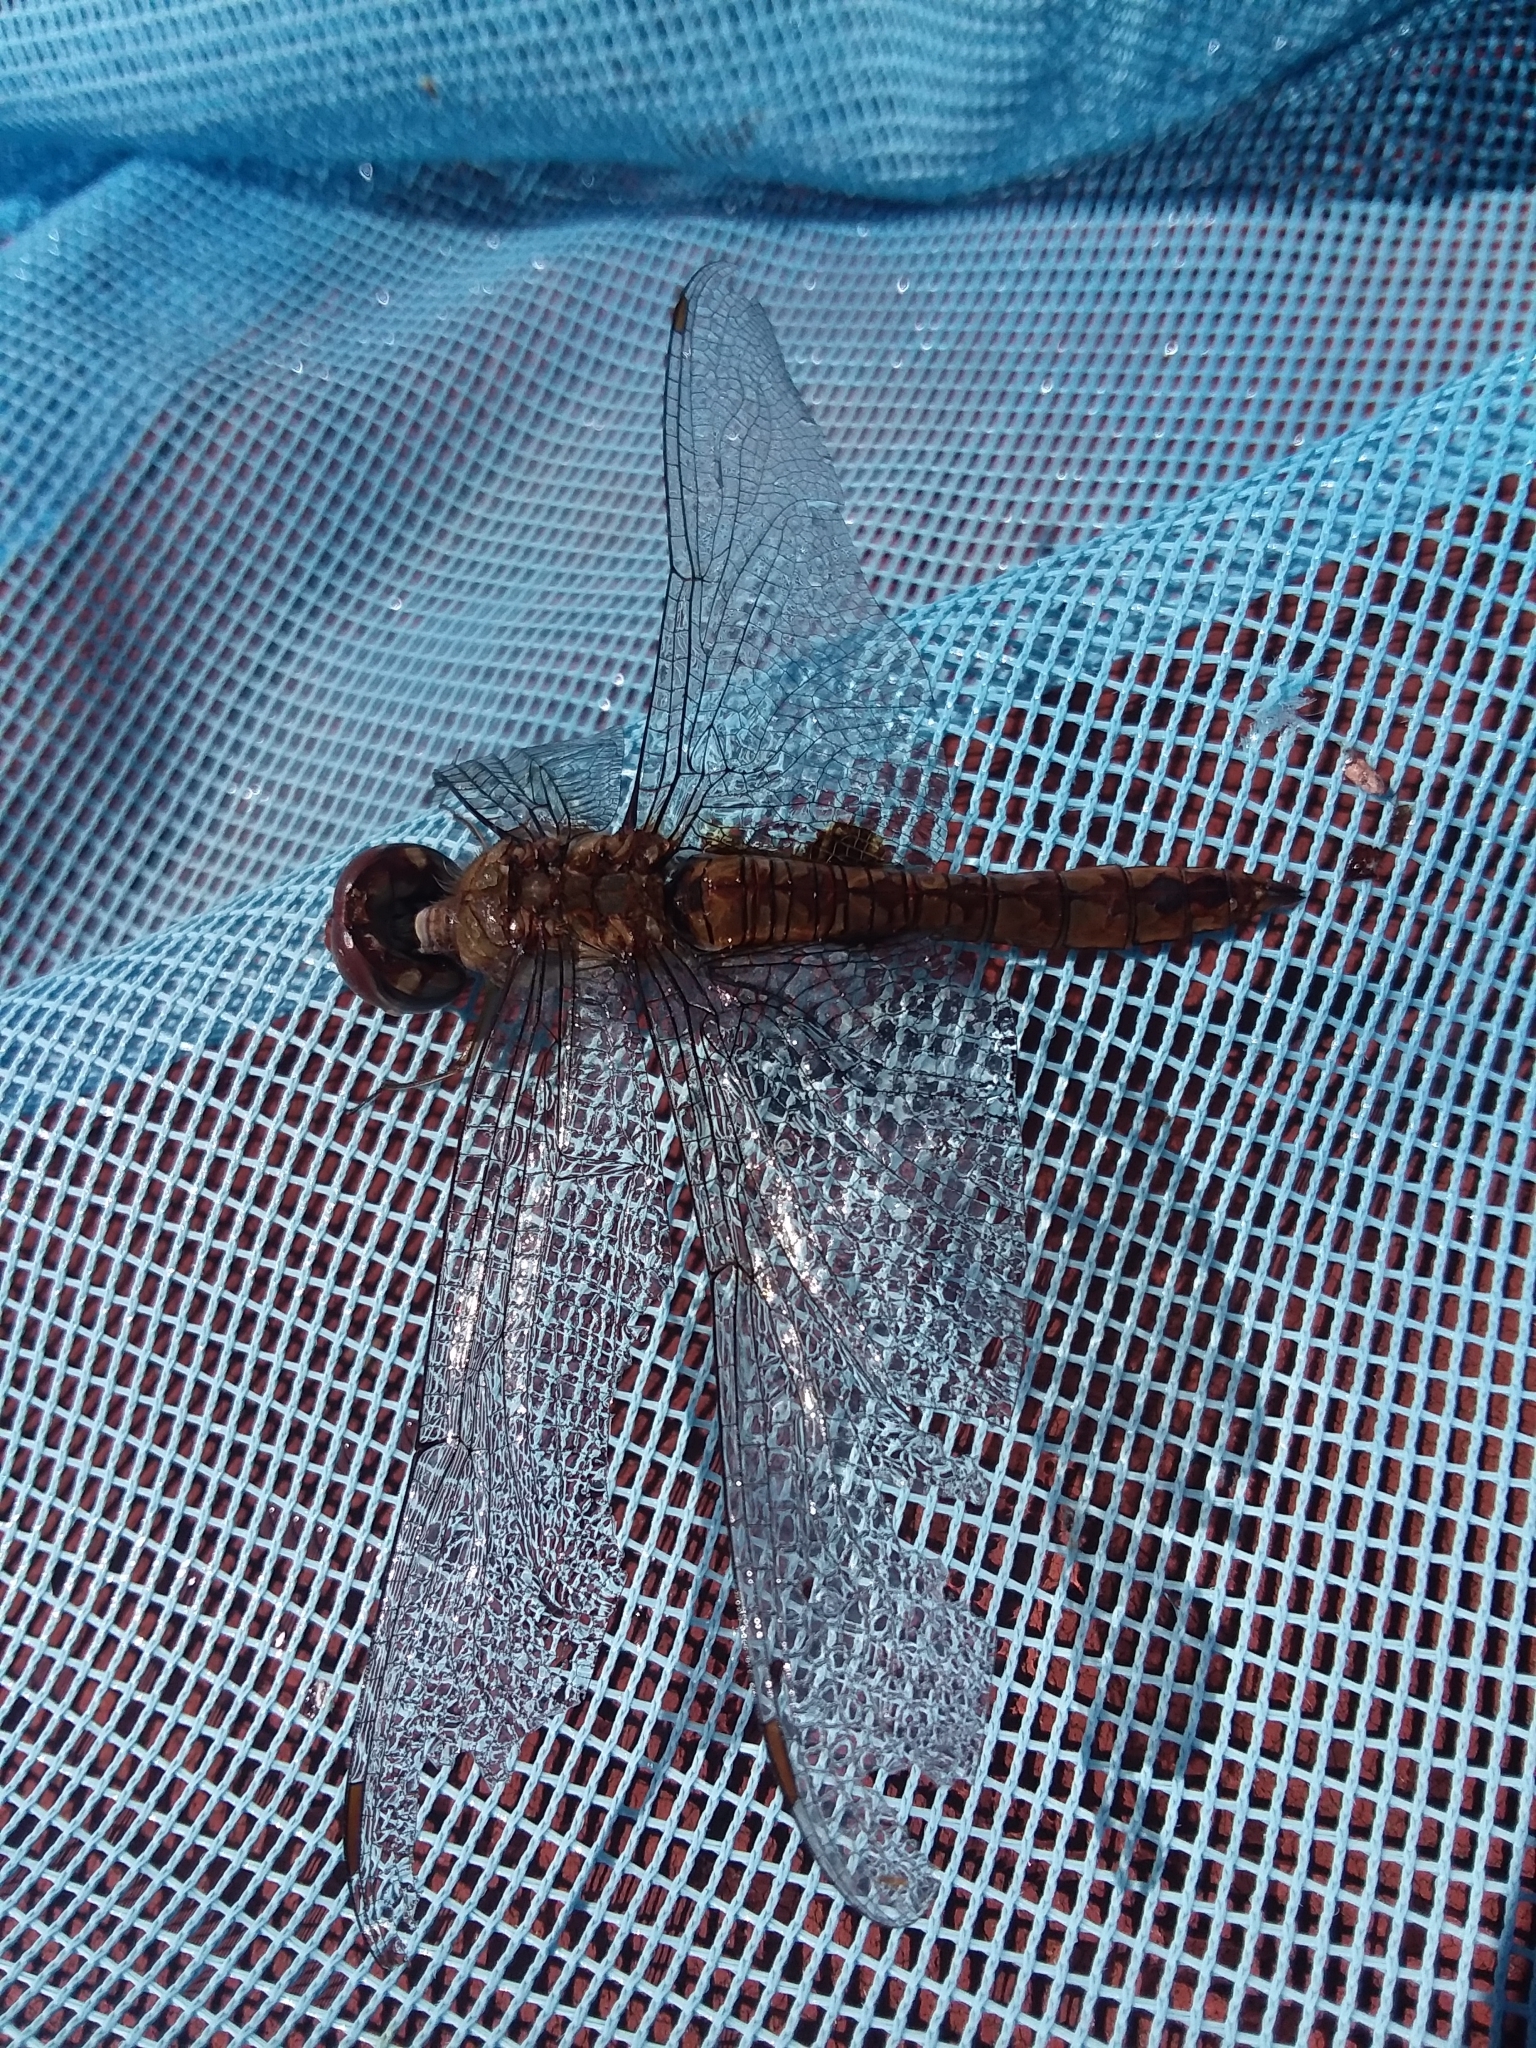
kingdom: Animalia
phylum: Arthropoda
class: Insecta
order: Odonata
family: Libellulidae
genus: Pantala
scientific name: Pantala hymenaea
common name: Spot-winged glider
